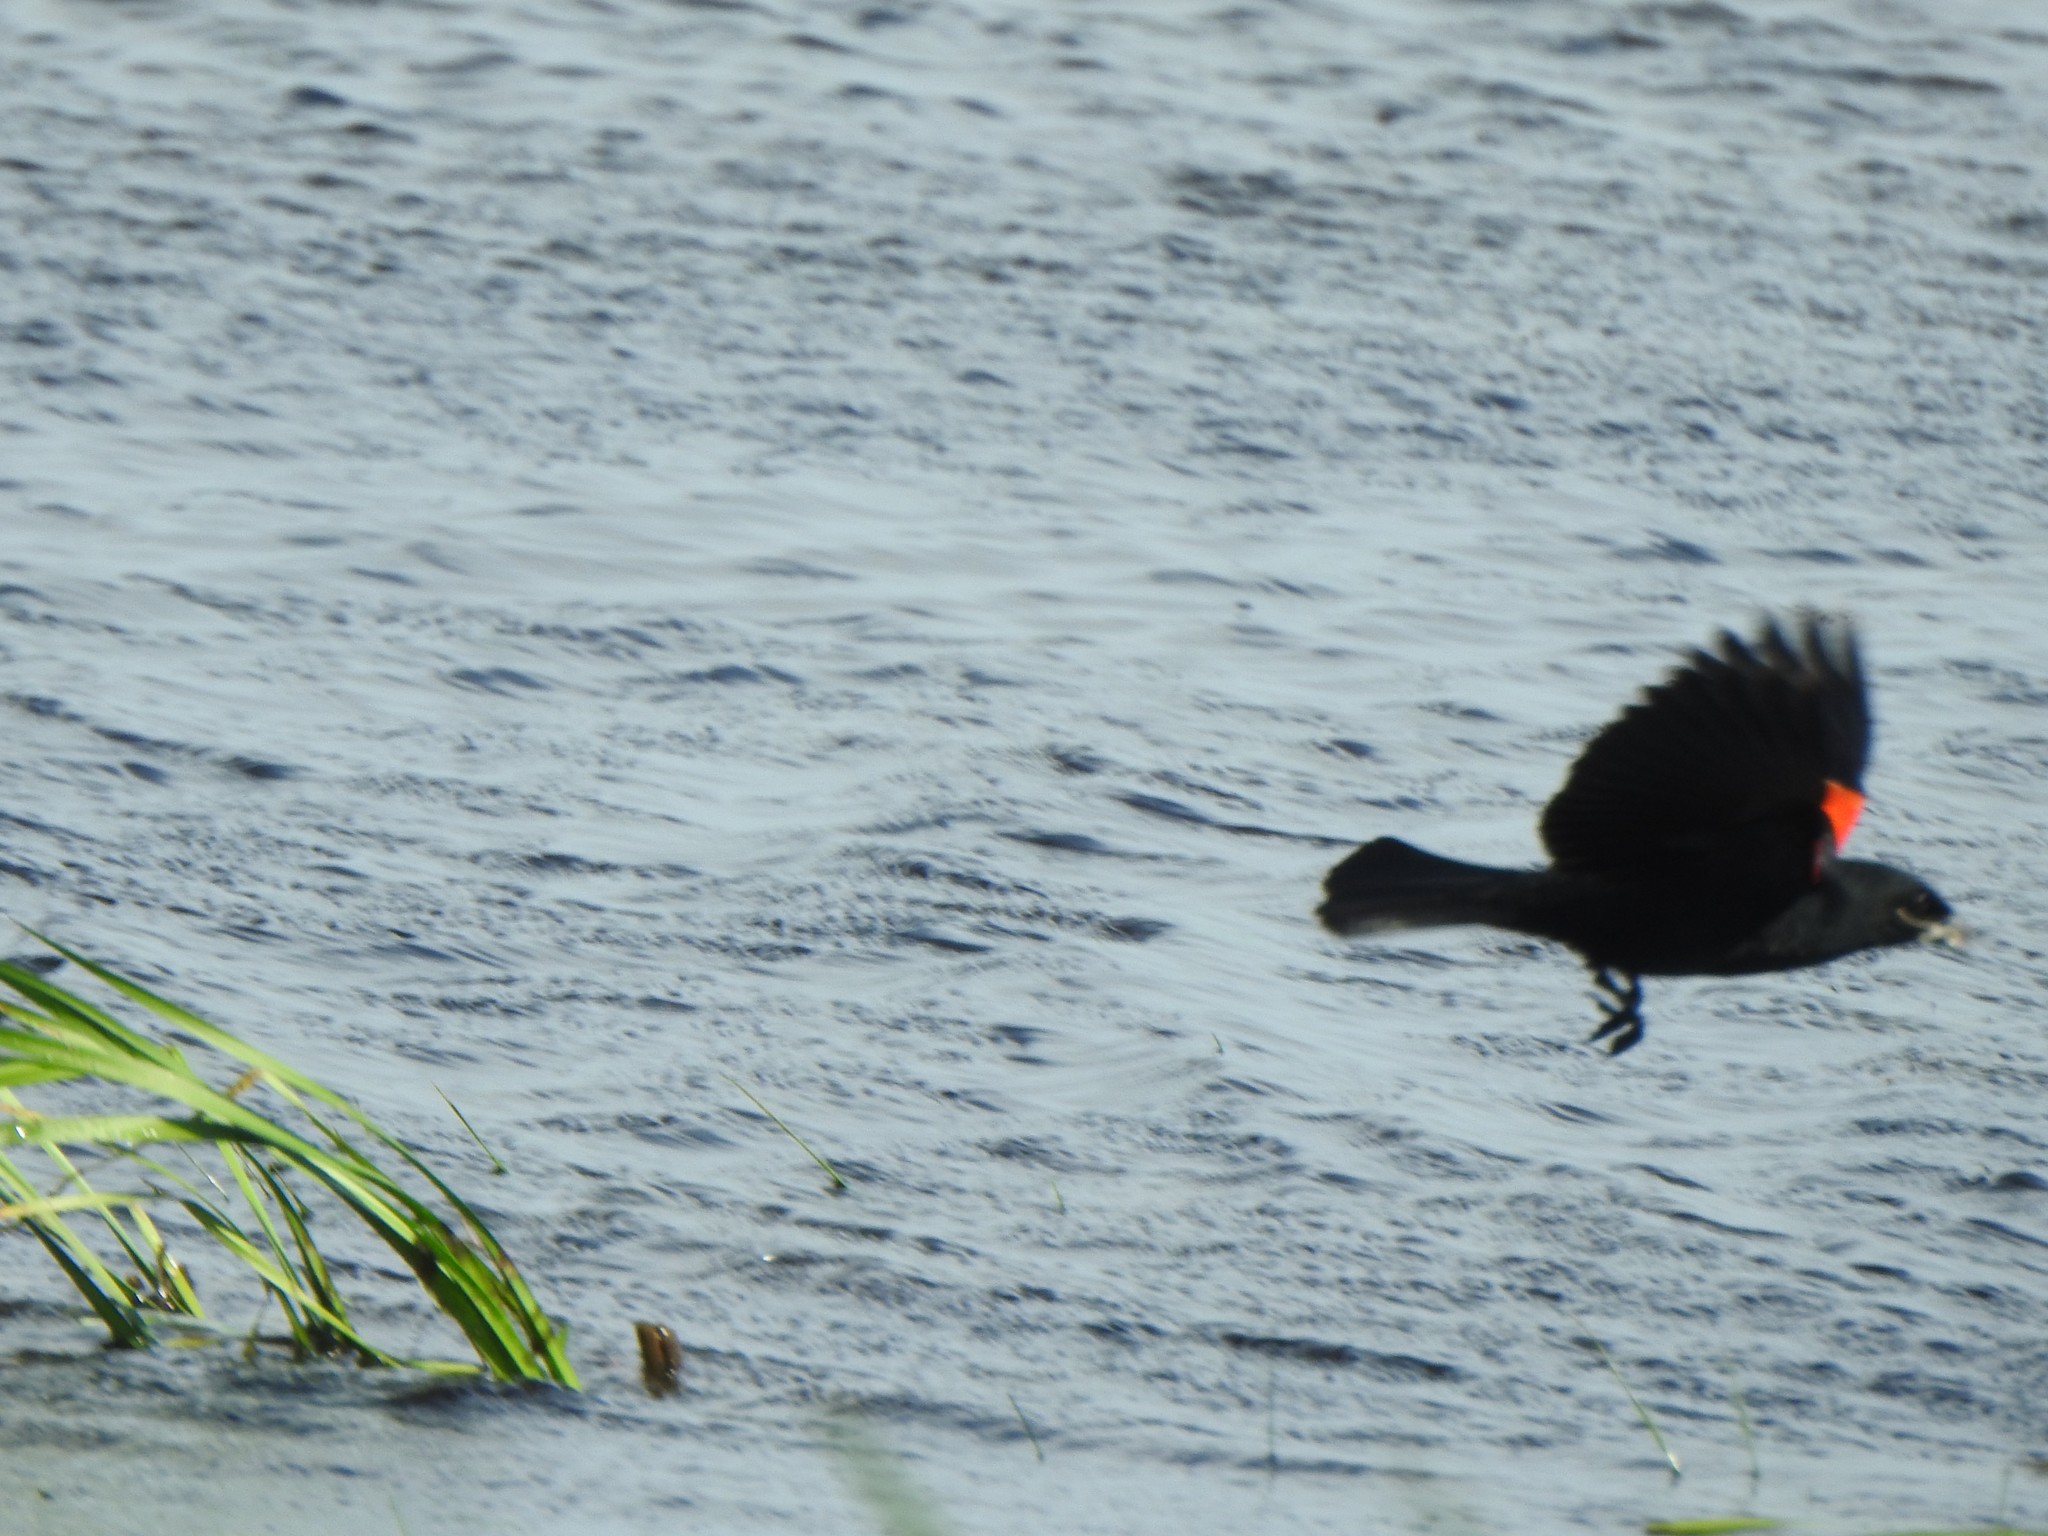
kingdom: Animalia
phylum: Chordata
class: Aves
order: Passeriformes
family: Icteridae
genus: Agelaius
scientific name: Agelaius phoeniceus
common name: Red-winged blackbird
